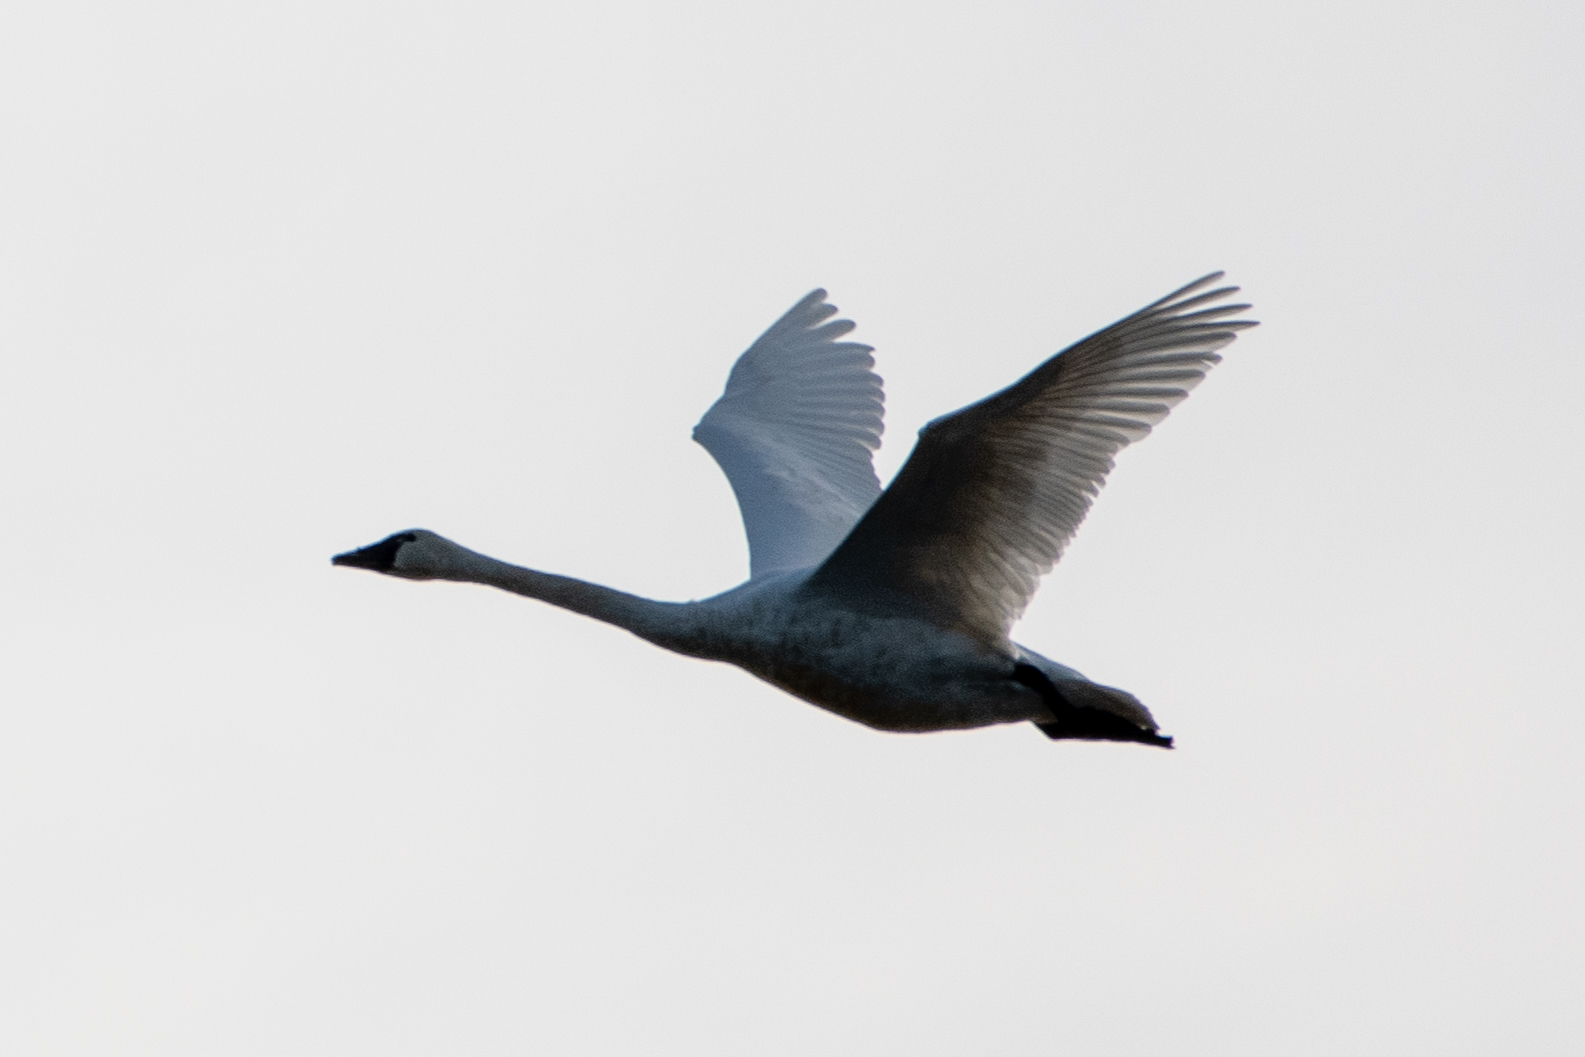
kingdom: Animalia
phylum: Chordata
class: Aves
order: Anseriformes
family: Anatidae
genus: Cygnus
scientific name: Cygnus columbianus
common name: Tundra swan
